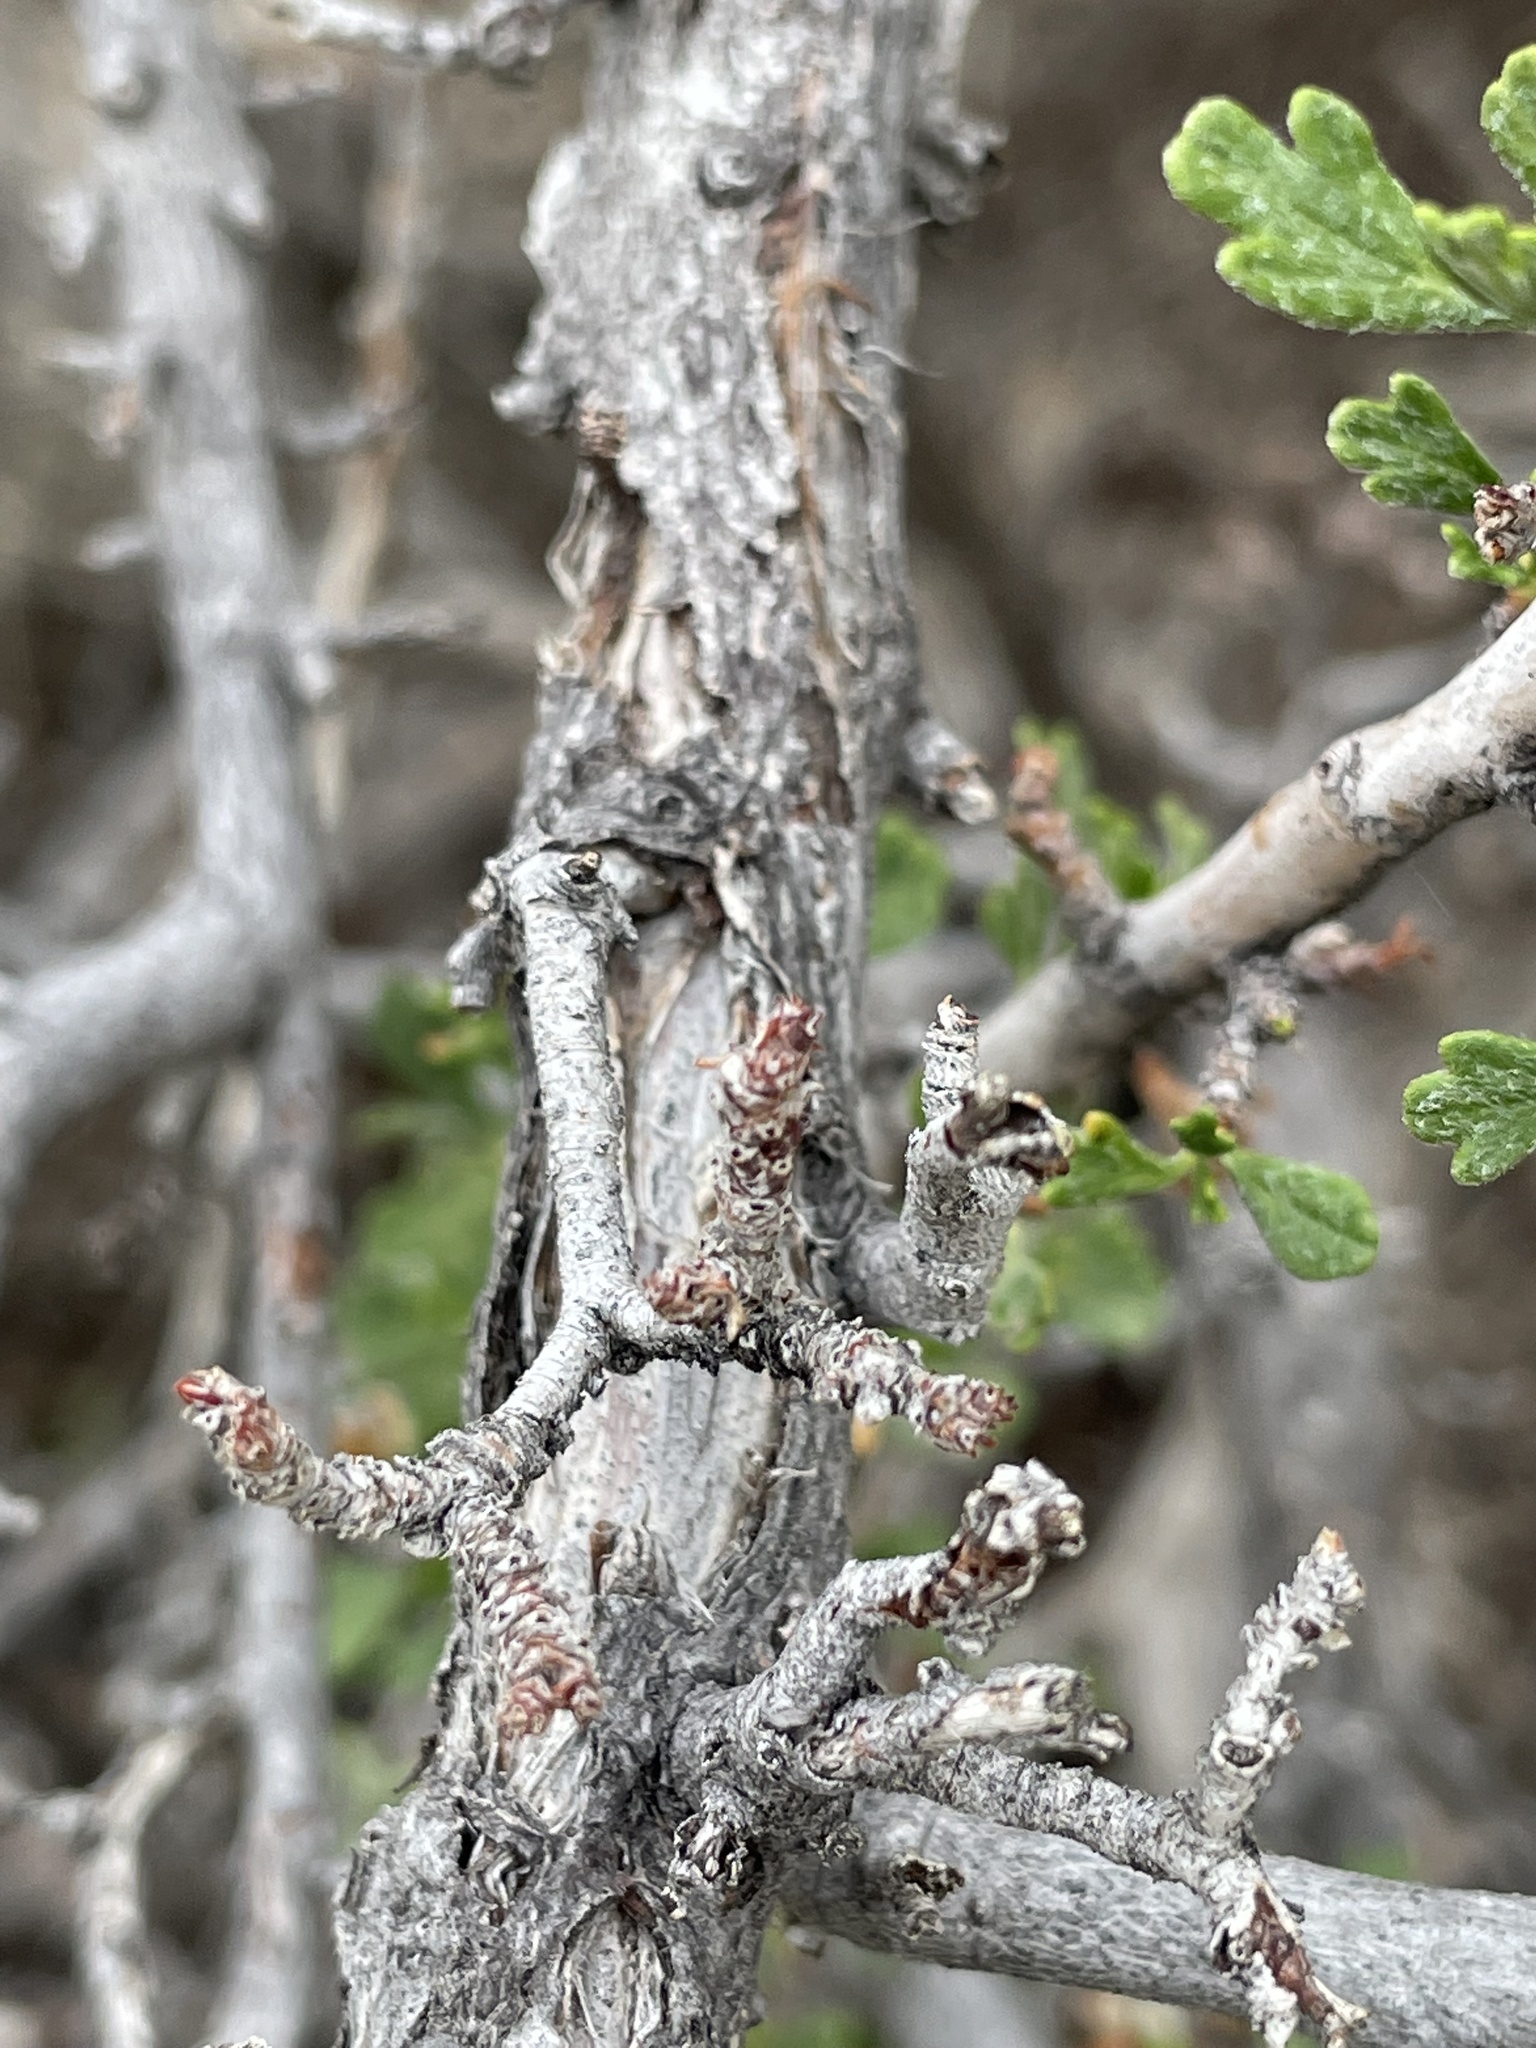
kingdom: Plantae
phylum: Tracheophyta
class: Magnoliopsida
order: Rosales
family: Rosaceae
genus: Purshia
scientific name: Purshia tridentata
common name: Antelope bitterbrush
